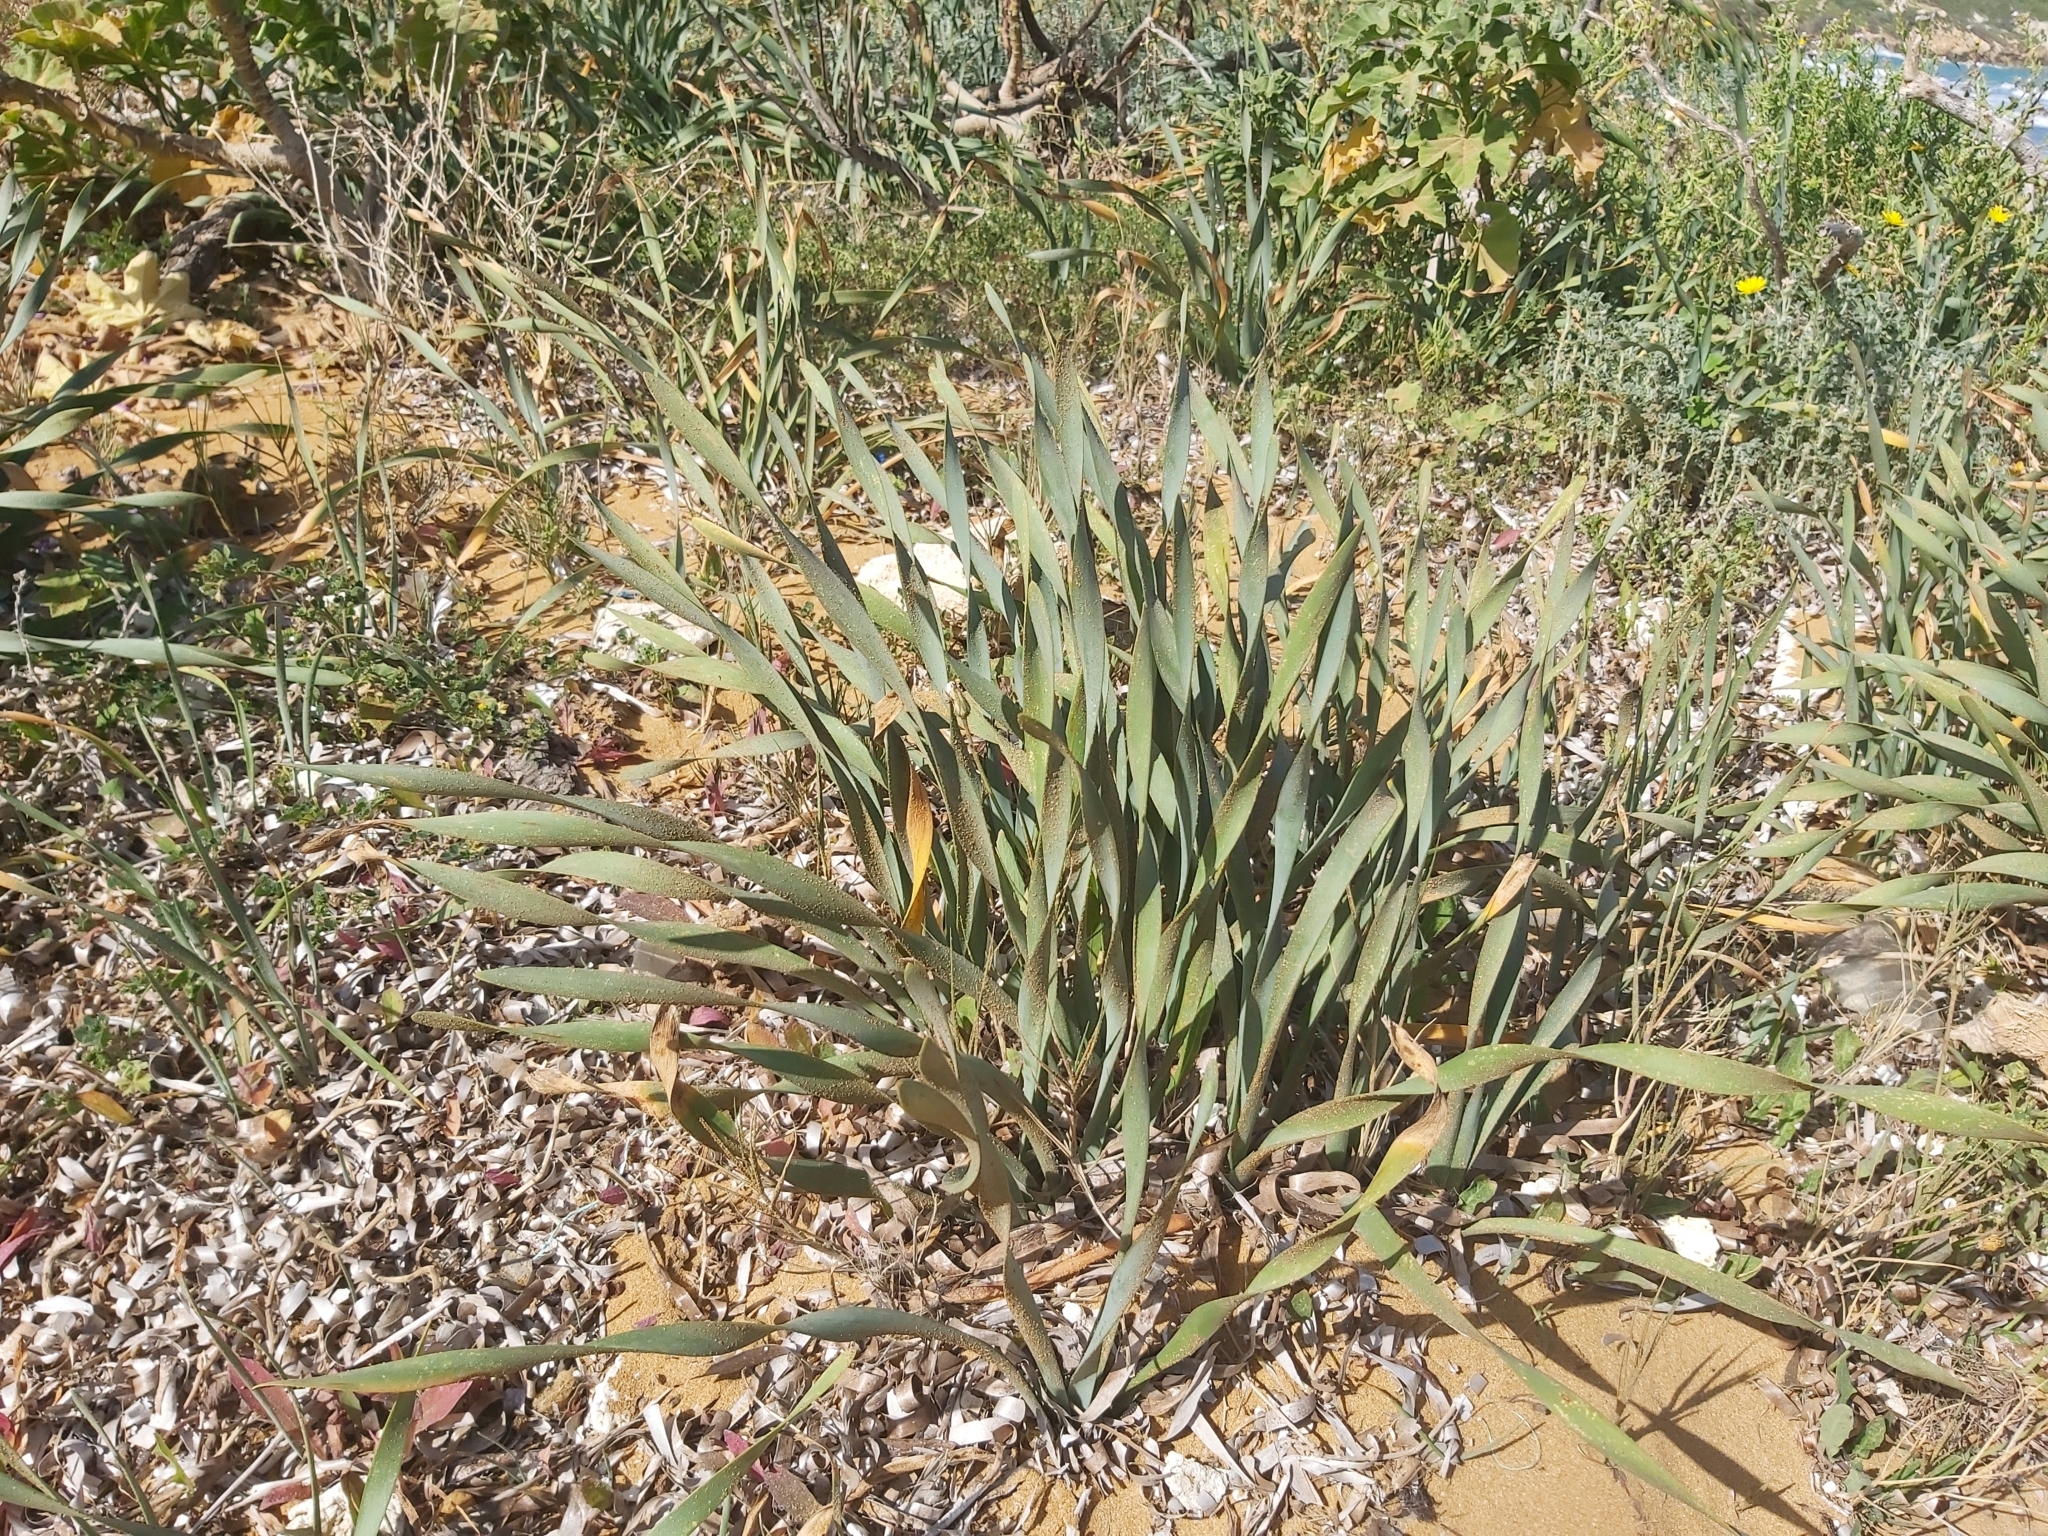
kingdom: Plantae
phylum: Tracheophyta
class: Liliopsida
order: Asparagales
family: Amaryllidaceae
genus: Pancratium
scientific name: Pancratium maritimum
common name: Sea-daffodil
